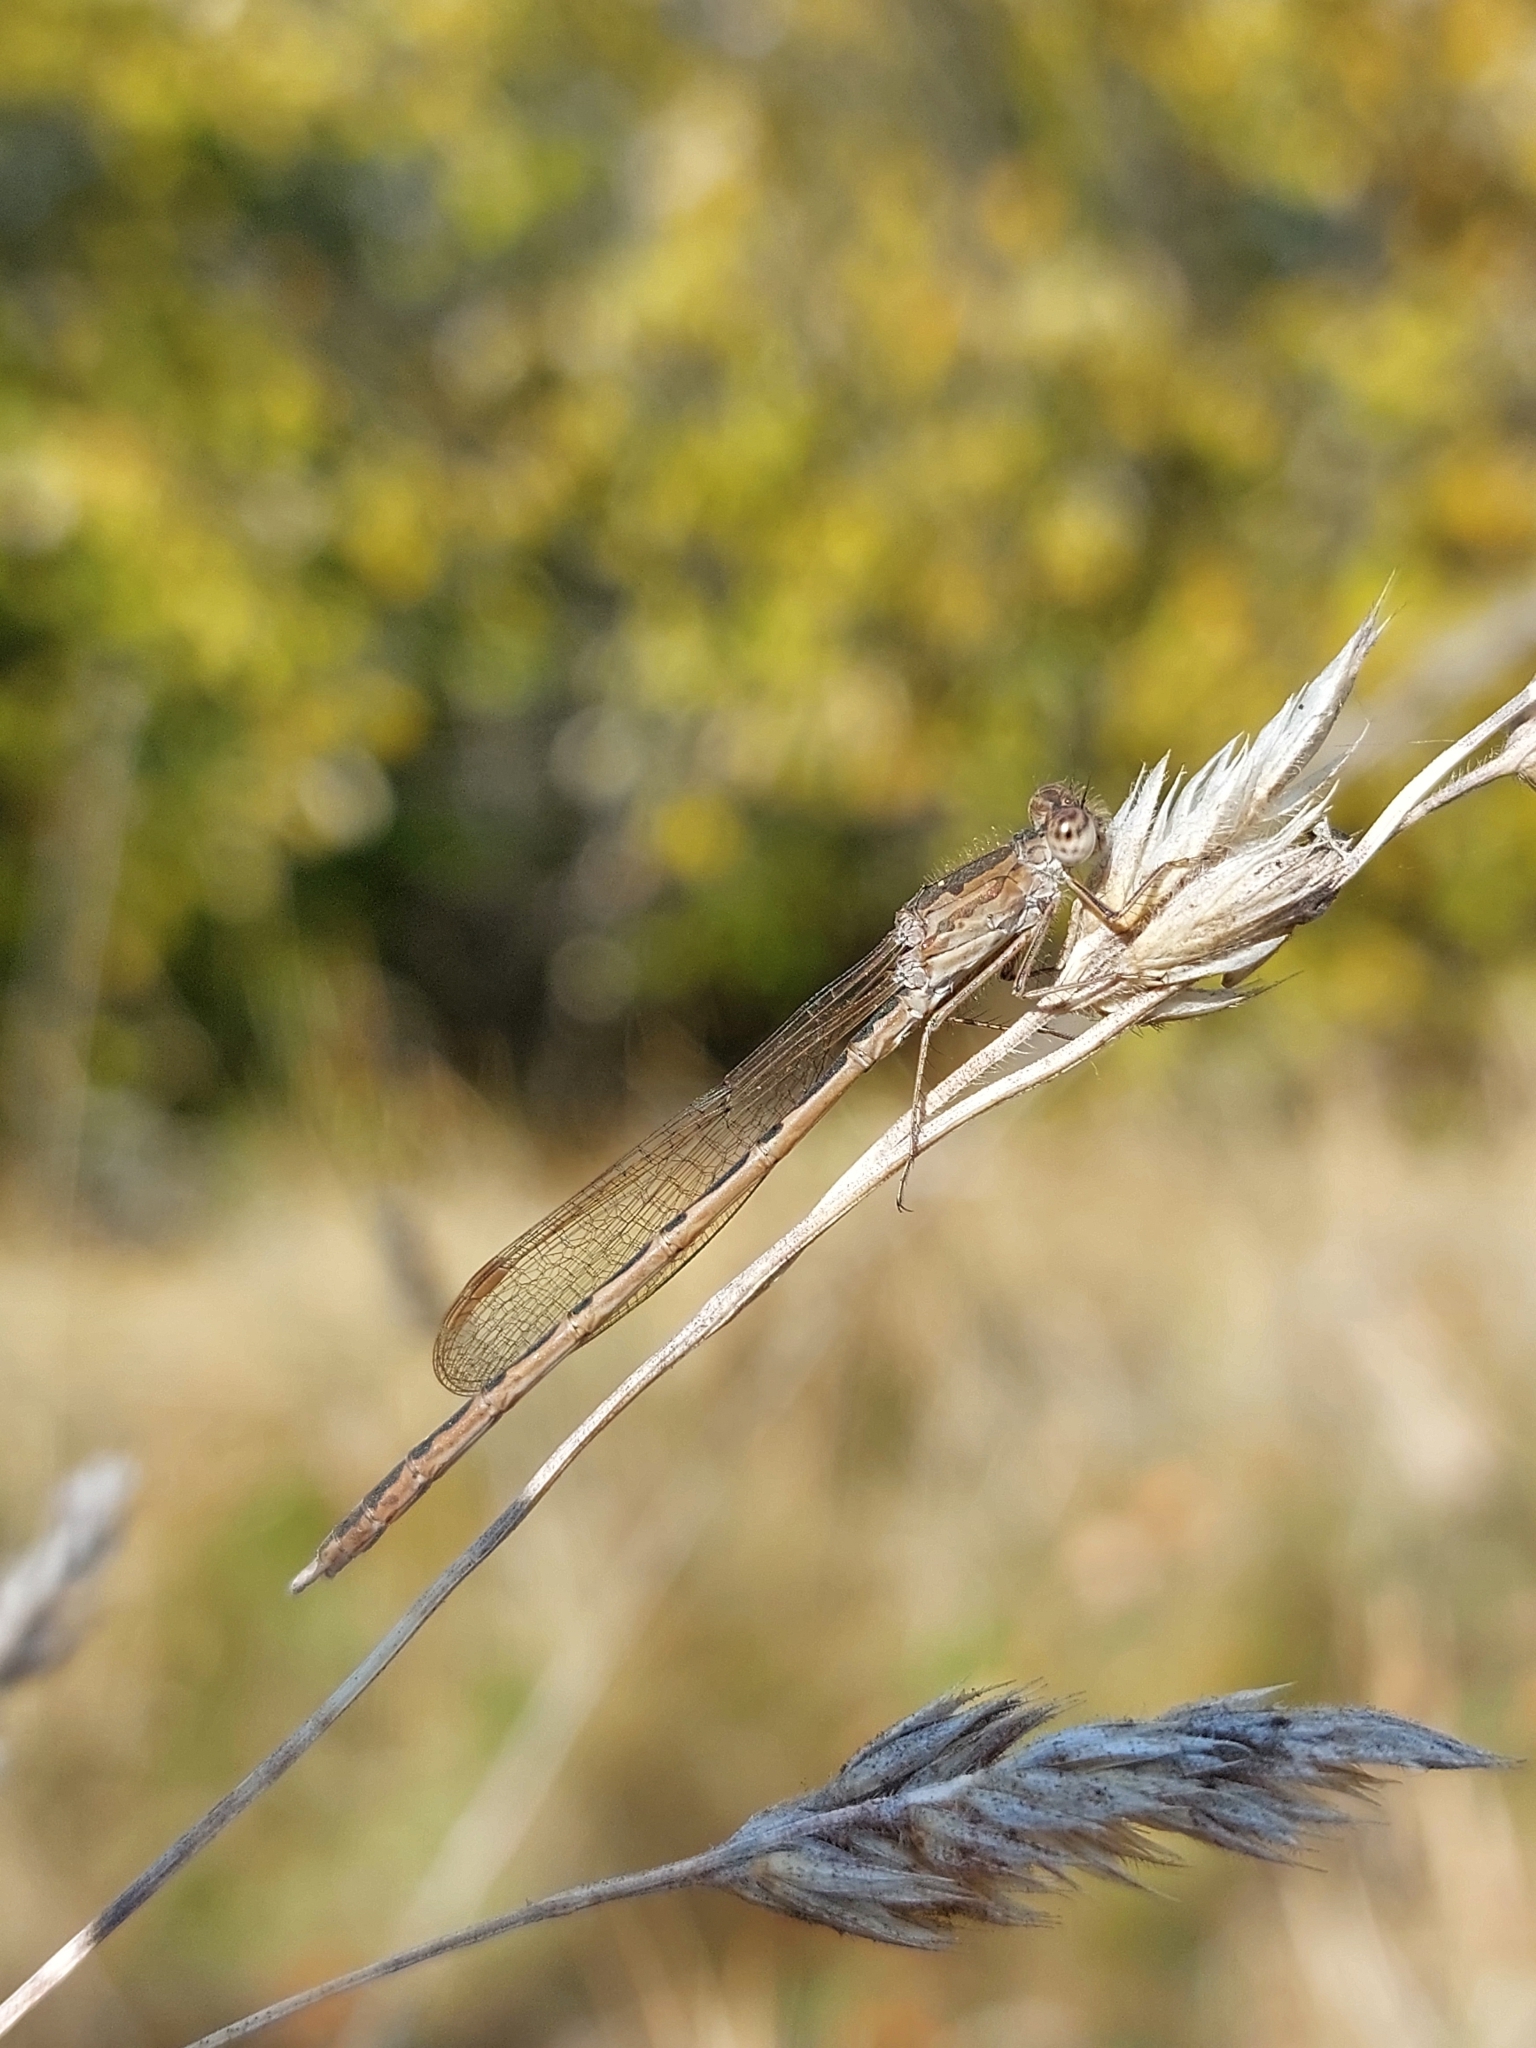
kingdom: Animalia
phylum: Arthropoda
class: Insecta
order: Odonata
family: Lestidae
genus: Sympecma
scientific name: Sympecma paedisca
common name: Siberian winter damsel
